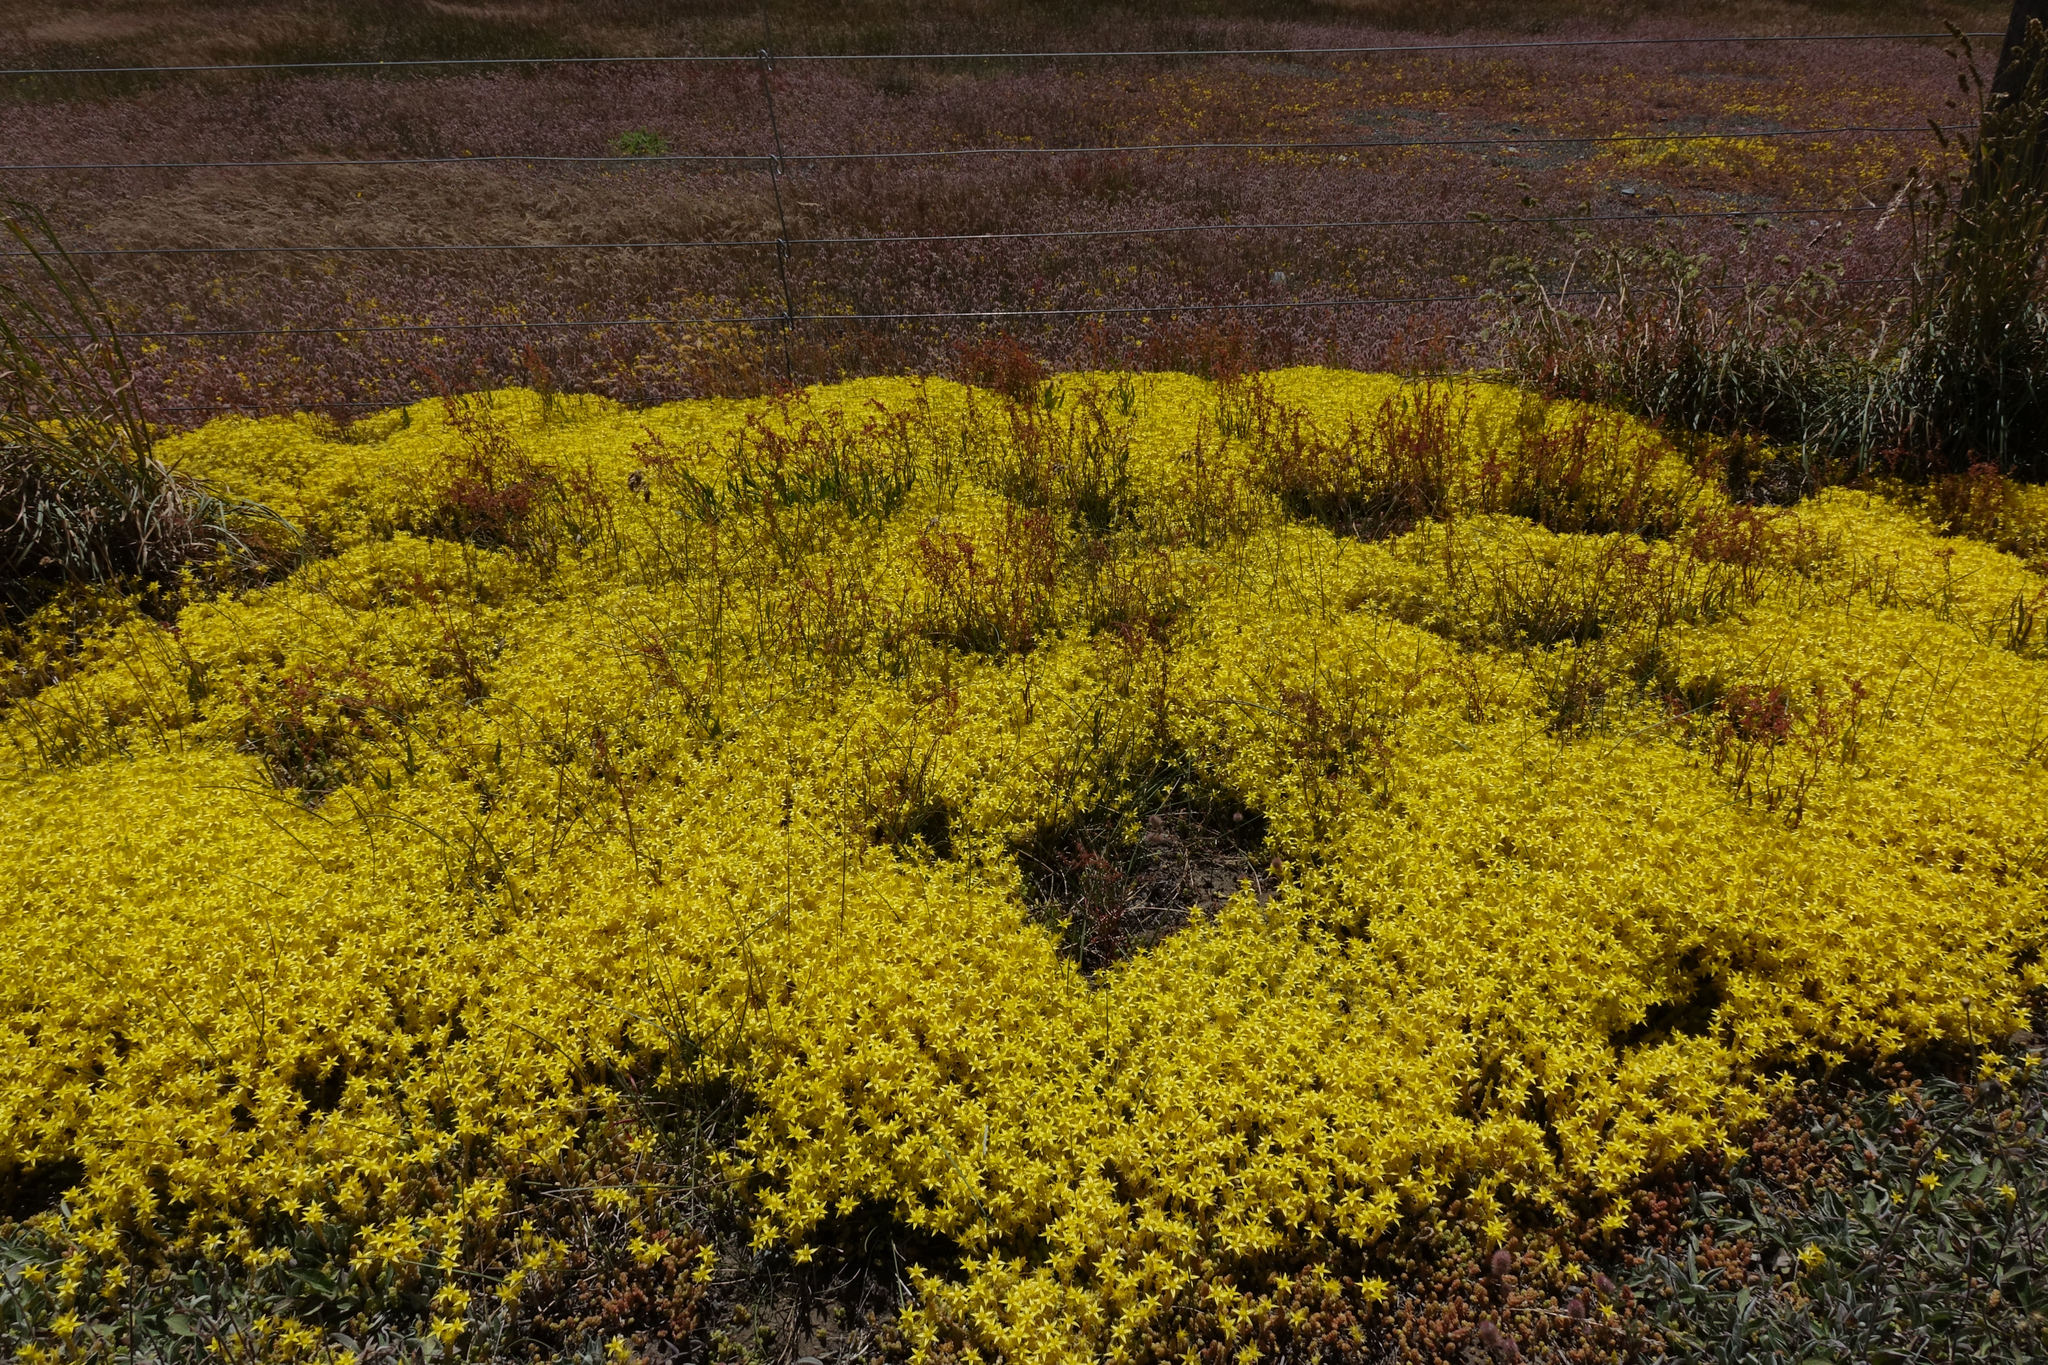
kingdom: Plantae
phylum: Tracheophyta
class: Magnoliopsida
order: Saxifragales
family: Crassulaceae
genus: Sedum
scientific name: Sedum acre
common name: Biting stonecrop
